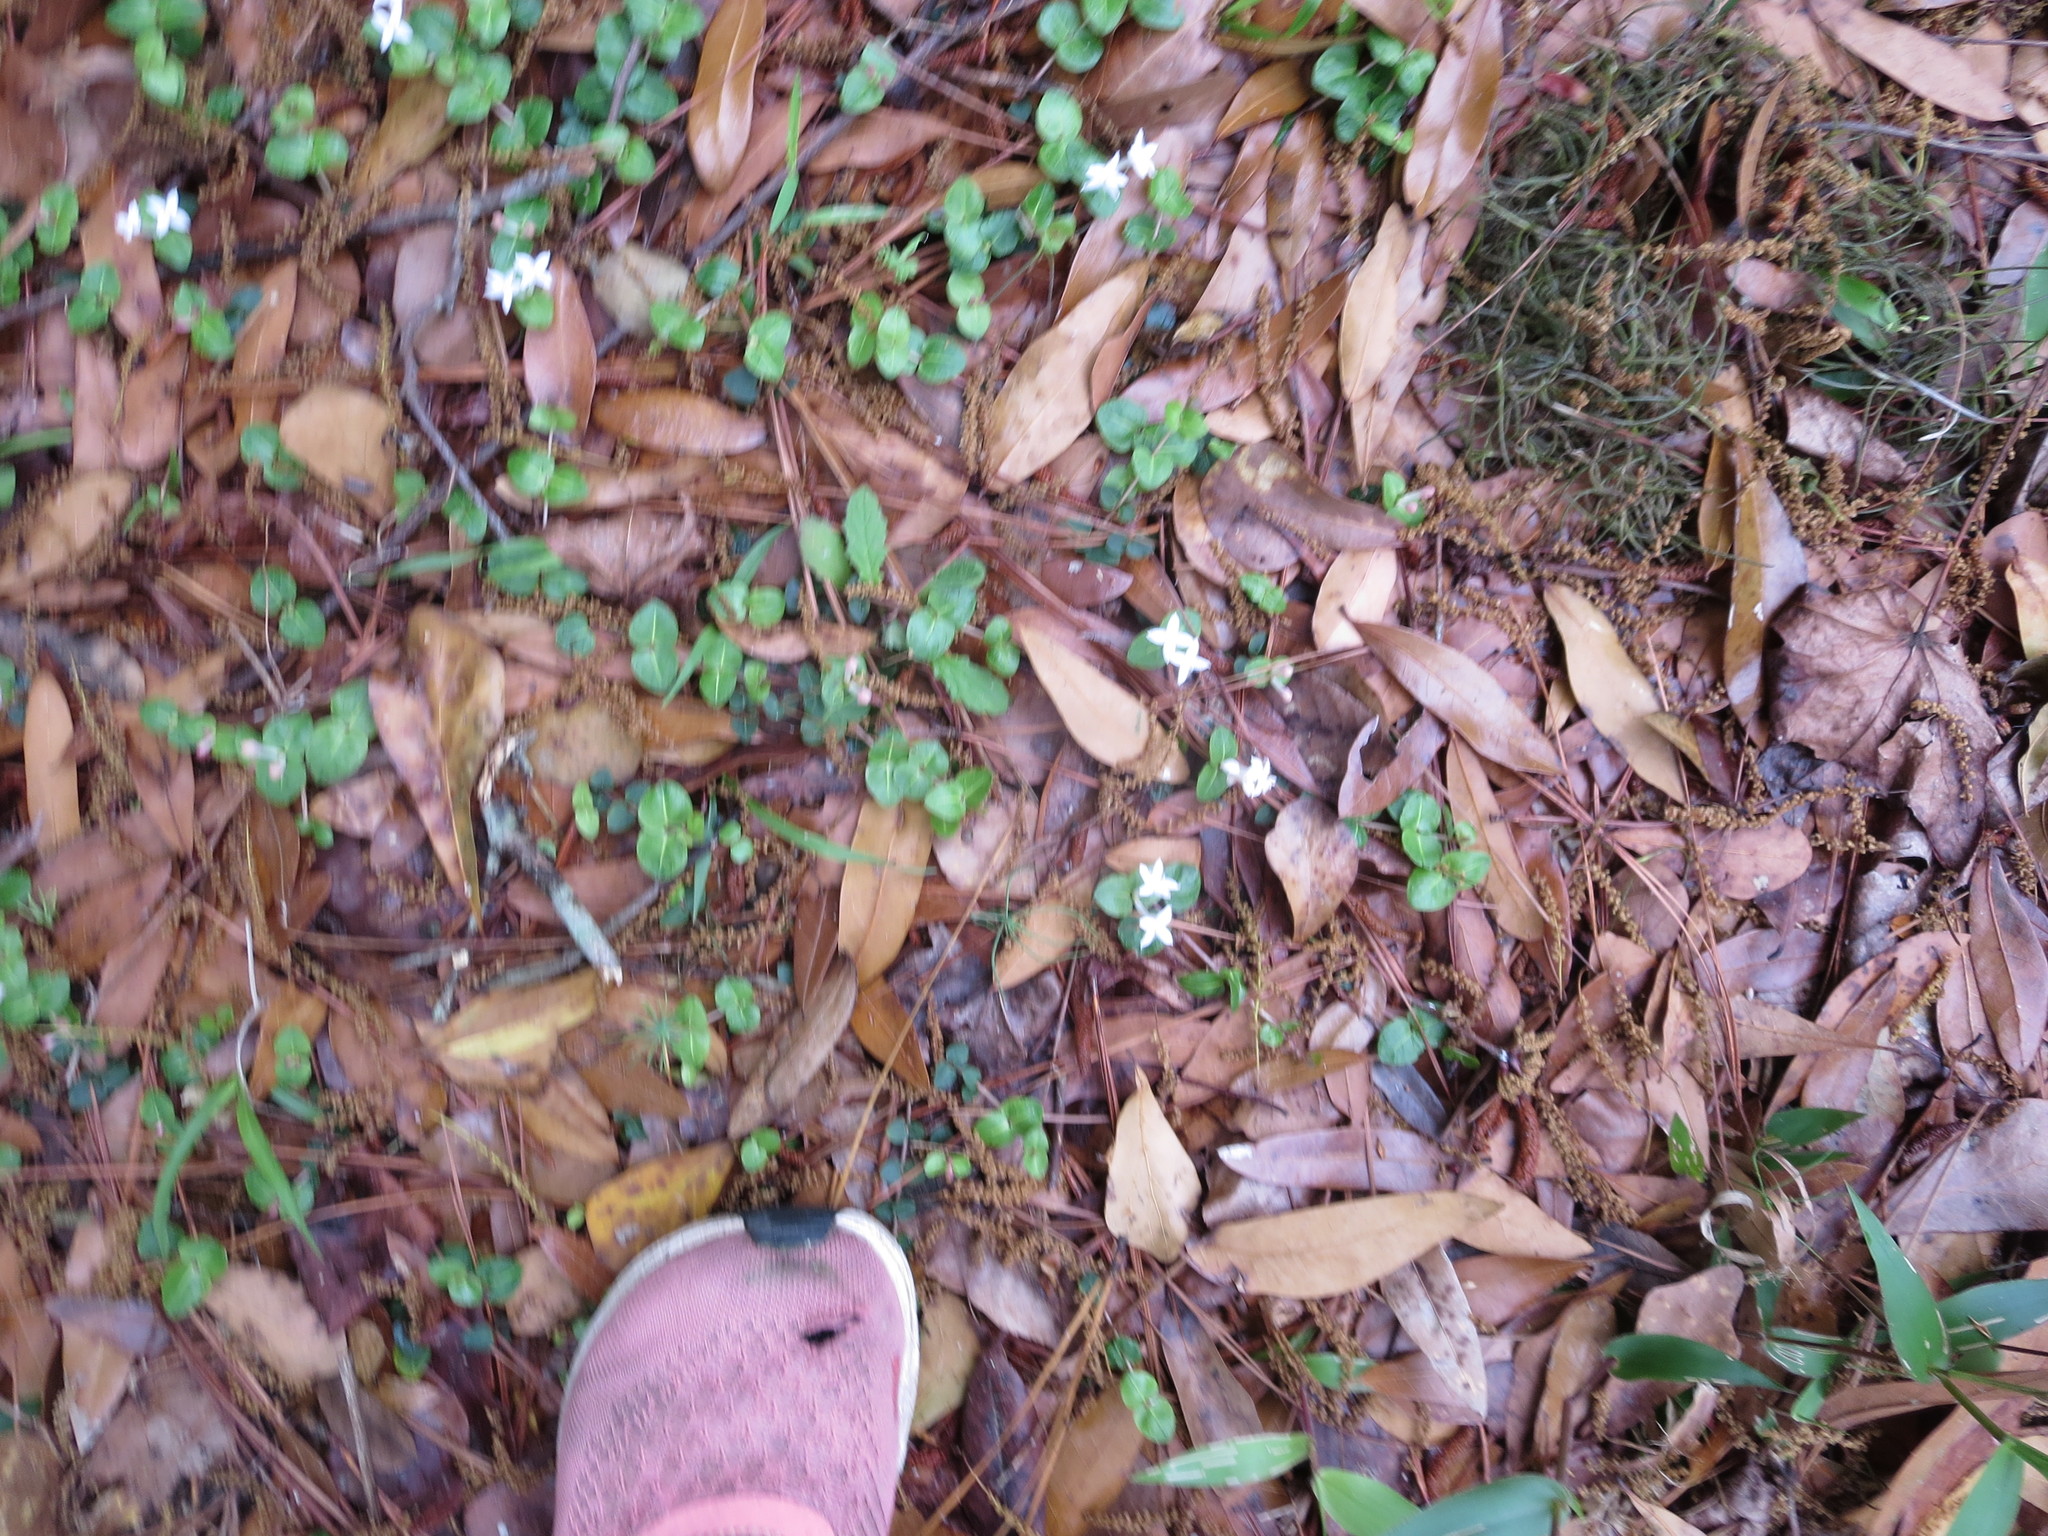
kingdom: Plantae
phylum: Tracheophyta
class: Magnoliopsida
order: Gentianales
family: Rubiaceae
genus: Mitchella
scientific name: Mitchella repens
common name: Partridge-berry
